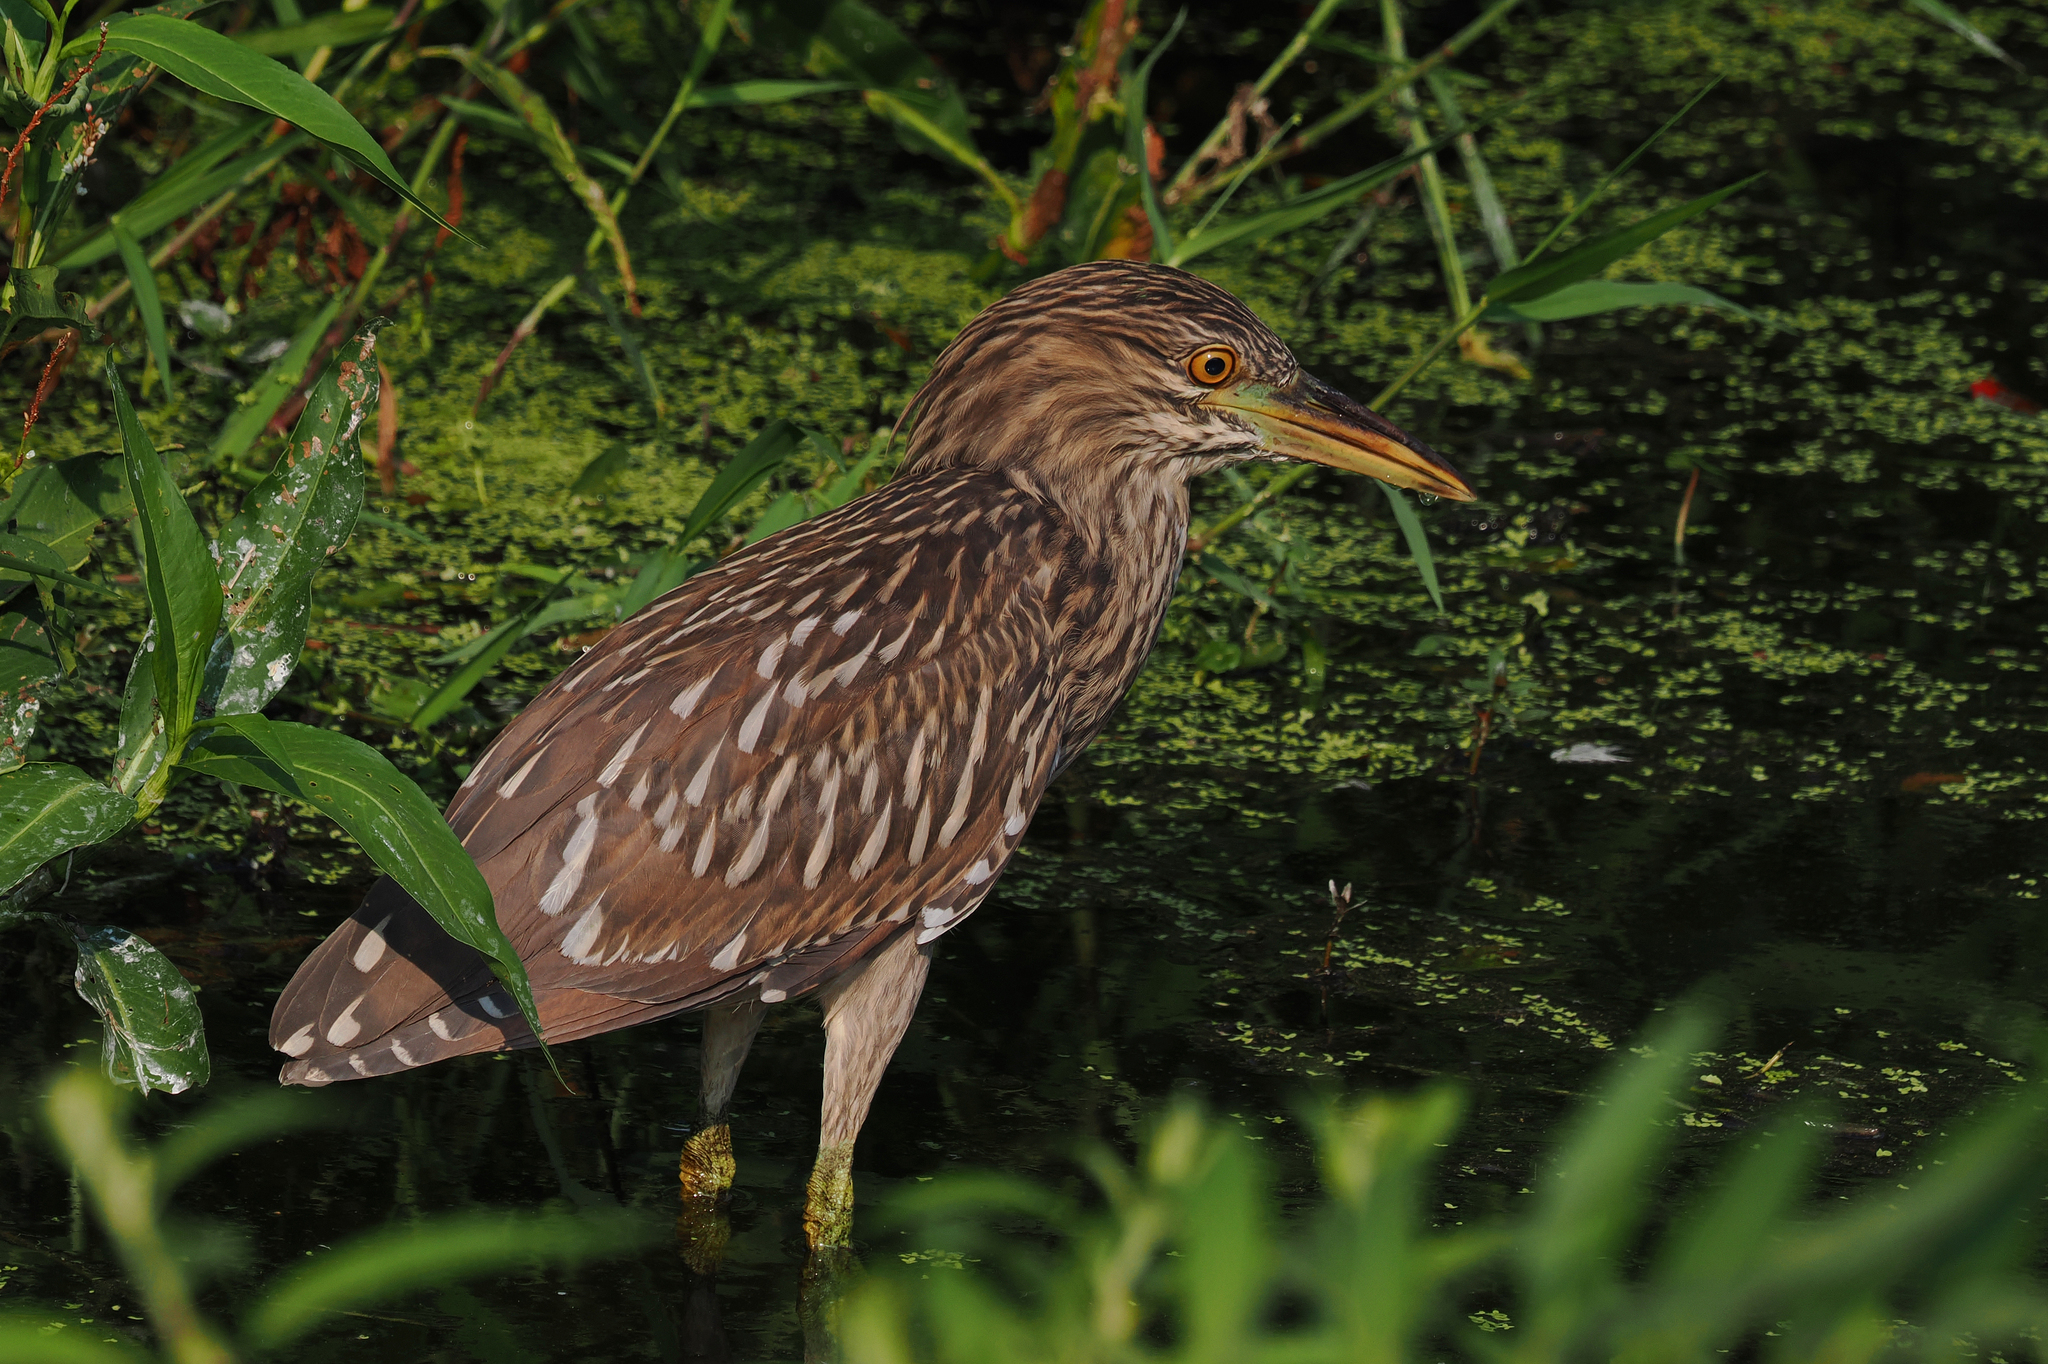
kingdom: Animalia
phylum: Chordata
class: Aves
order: Pelecaniformes
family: Ardeidae
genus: Nycticorax
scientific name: Nycticorax nycticorax
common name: Black-crowned night heron
